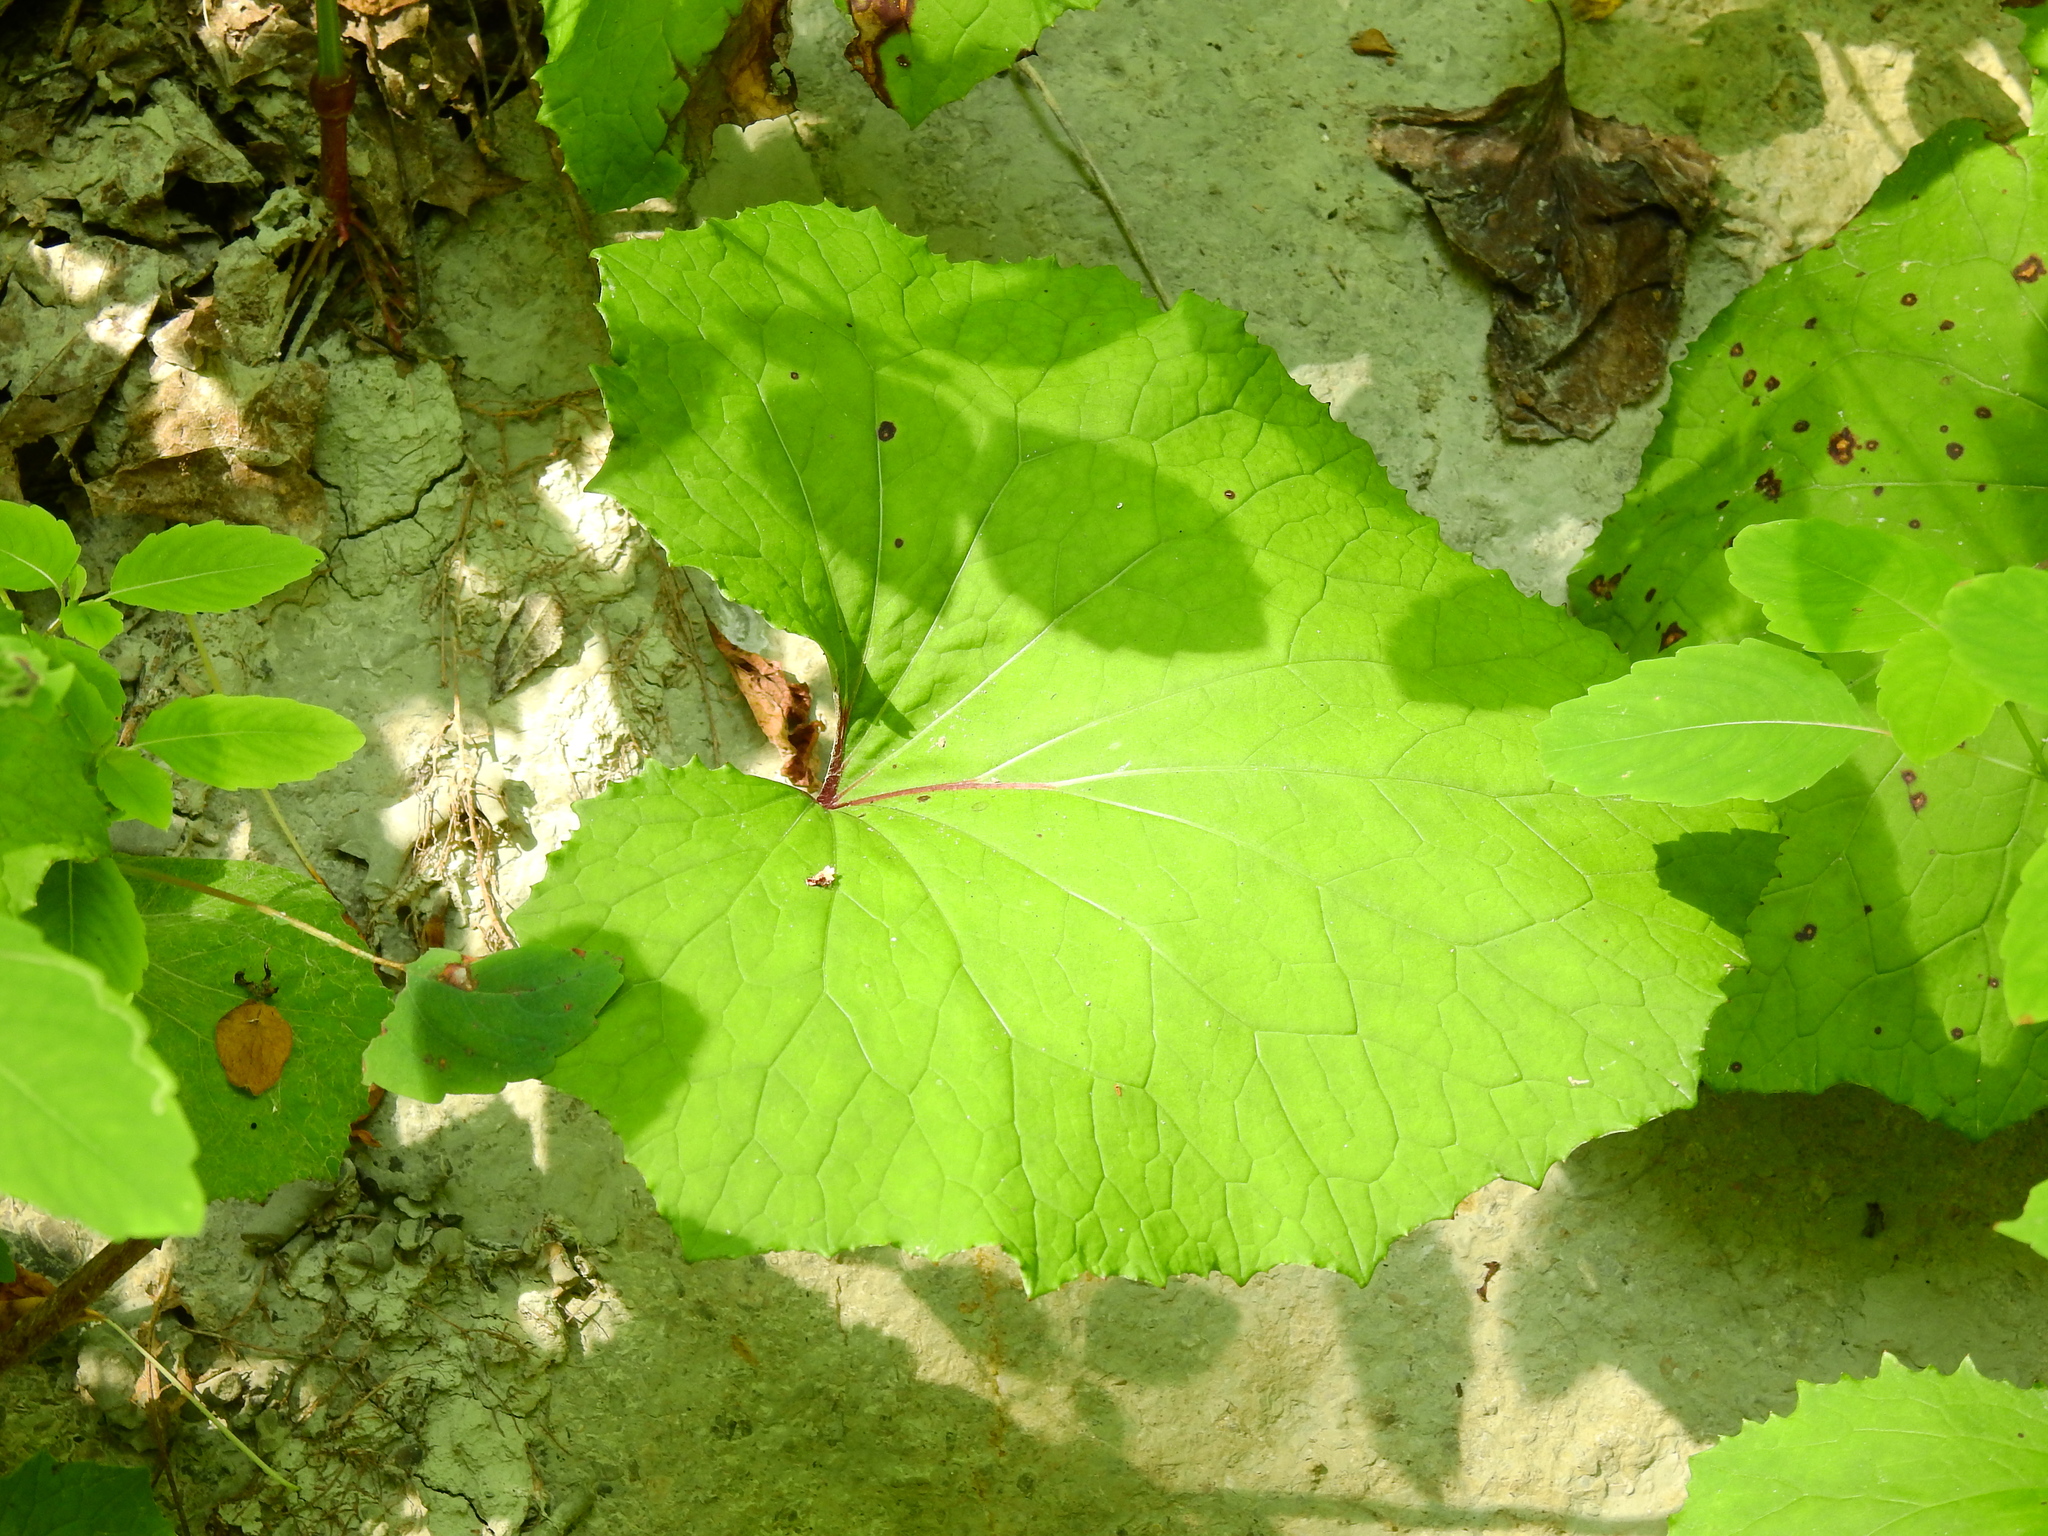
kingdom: Plantae
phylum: Tracheophyta
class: Magnoliopsida
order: Asterales
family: Asteraceae
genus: Tussilago
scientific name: Tussilago farfara
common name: Coltsfoot
